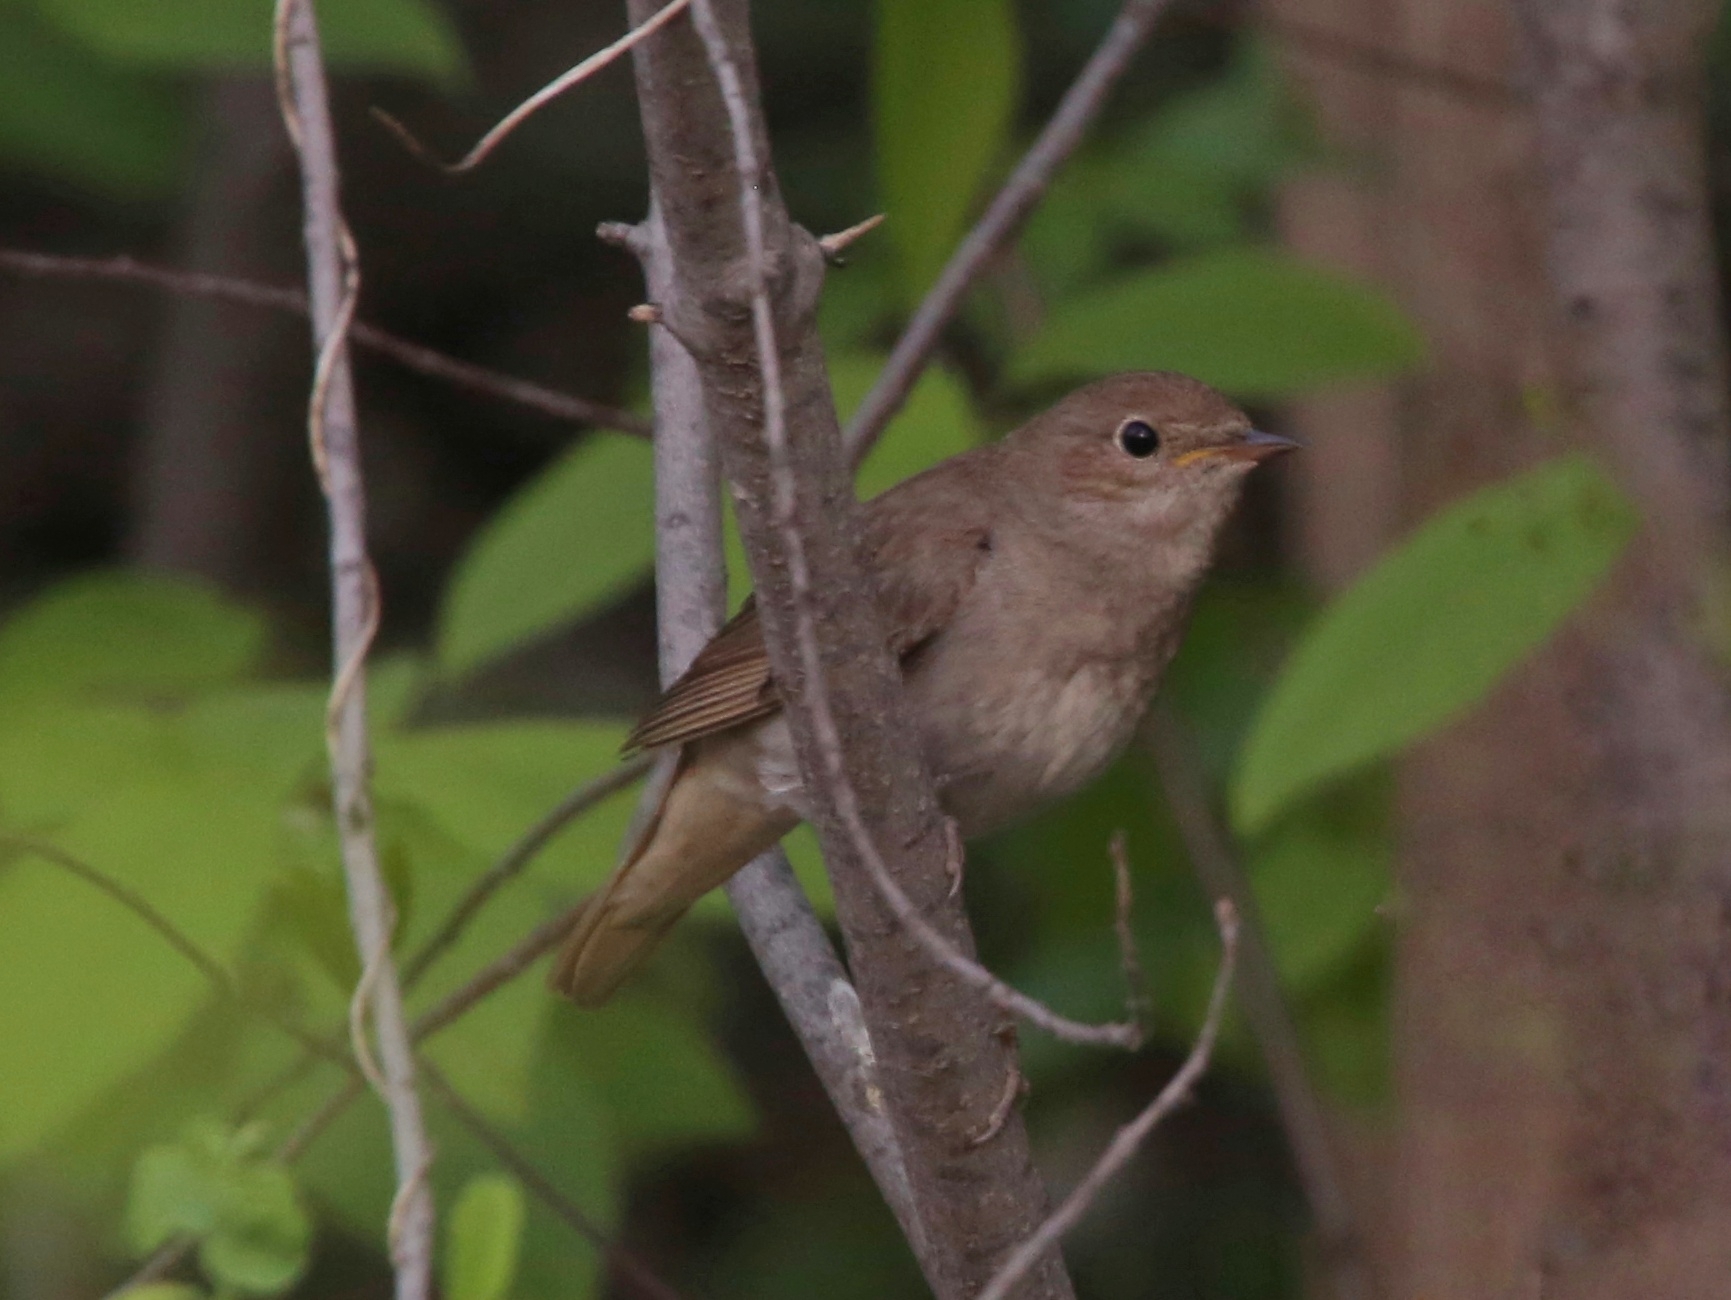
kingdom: Animalia
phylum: Chordata
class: Aves
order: Passeriformes
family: Muscicapidae
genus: Luscinia
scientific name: Luscinia luscinia
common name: Thrush nightingale
